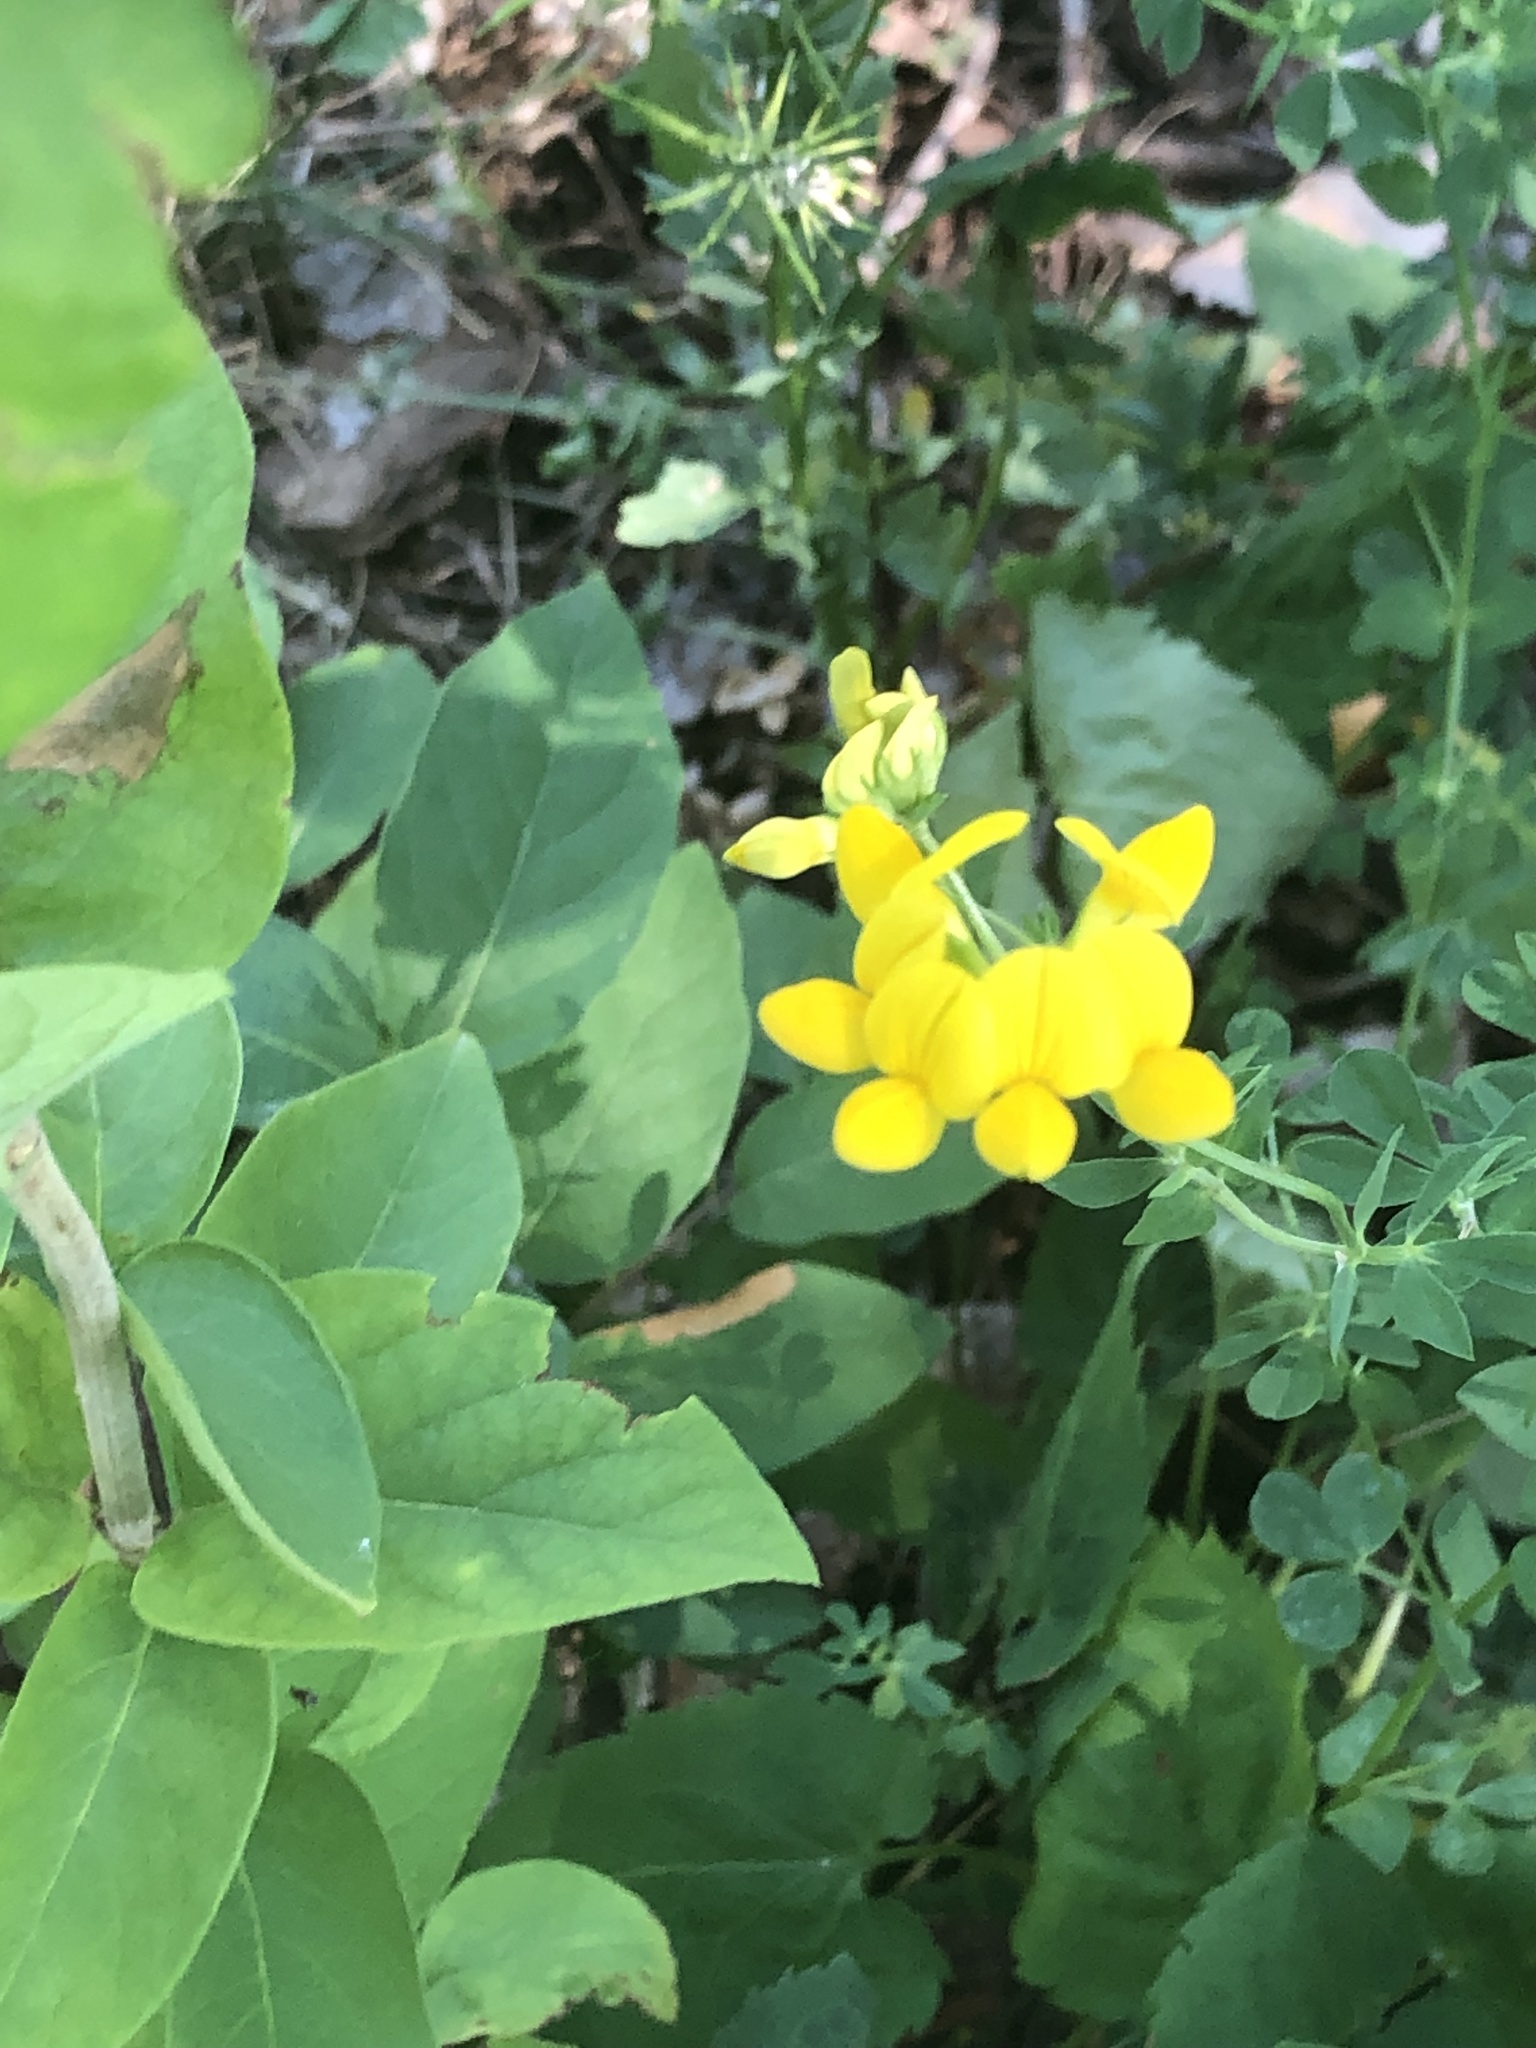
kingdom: Plantae
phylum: Tracheophyta
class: Magnoliopsida
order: Fabales
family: Fabaceae
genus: Lotus
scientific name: Lotus corniculatus
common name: Common bird's-foot-trefoil
